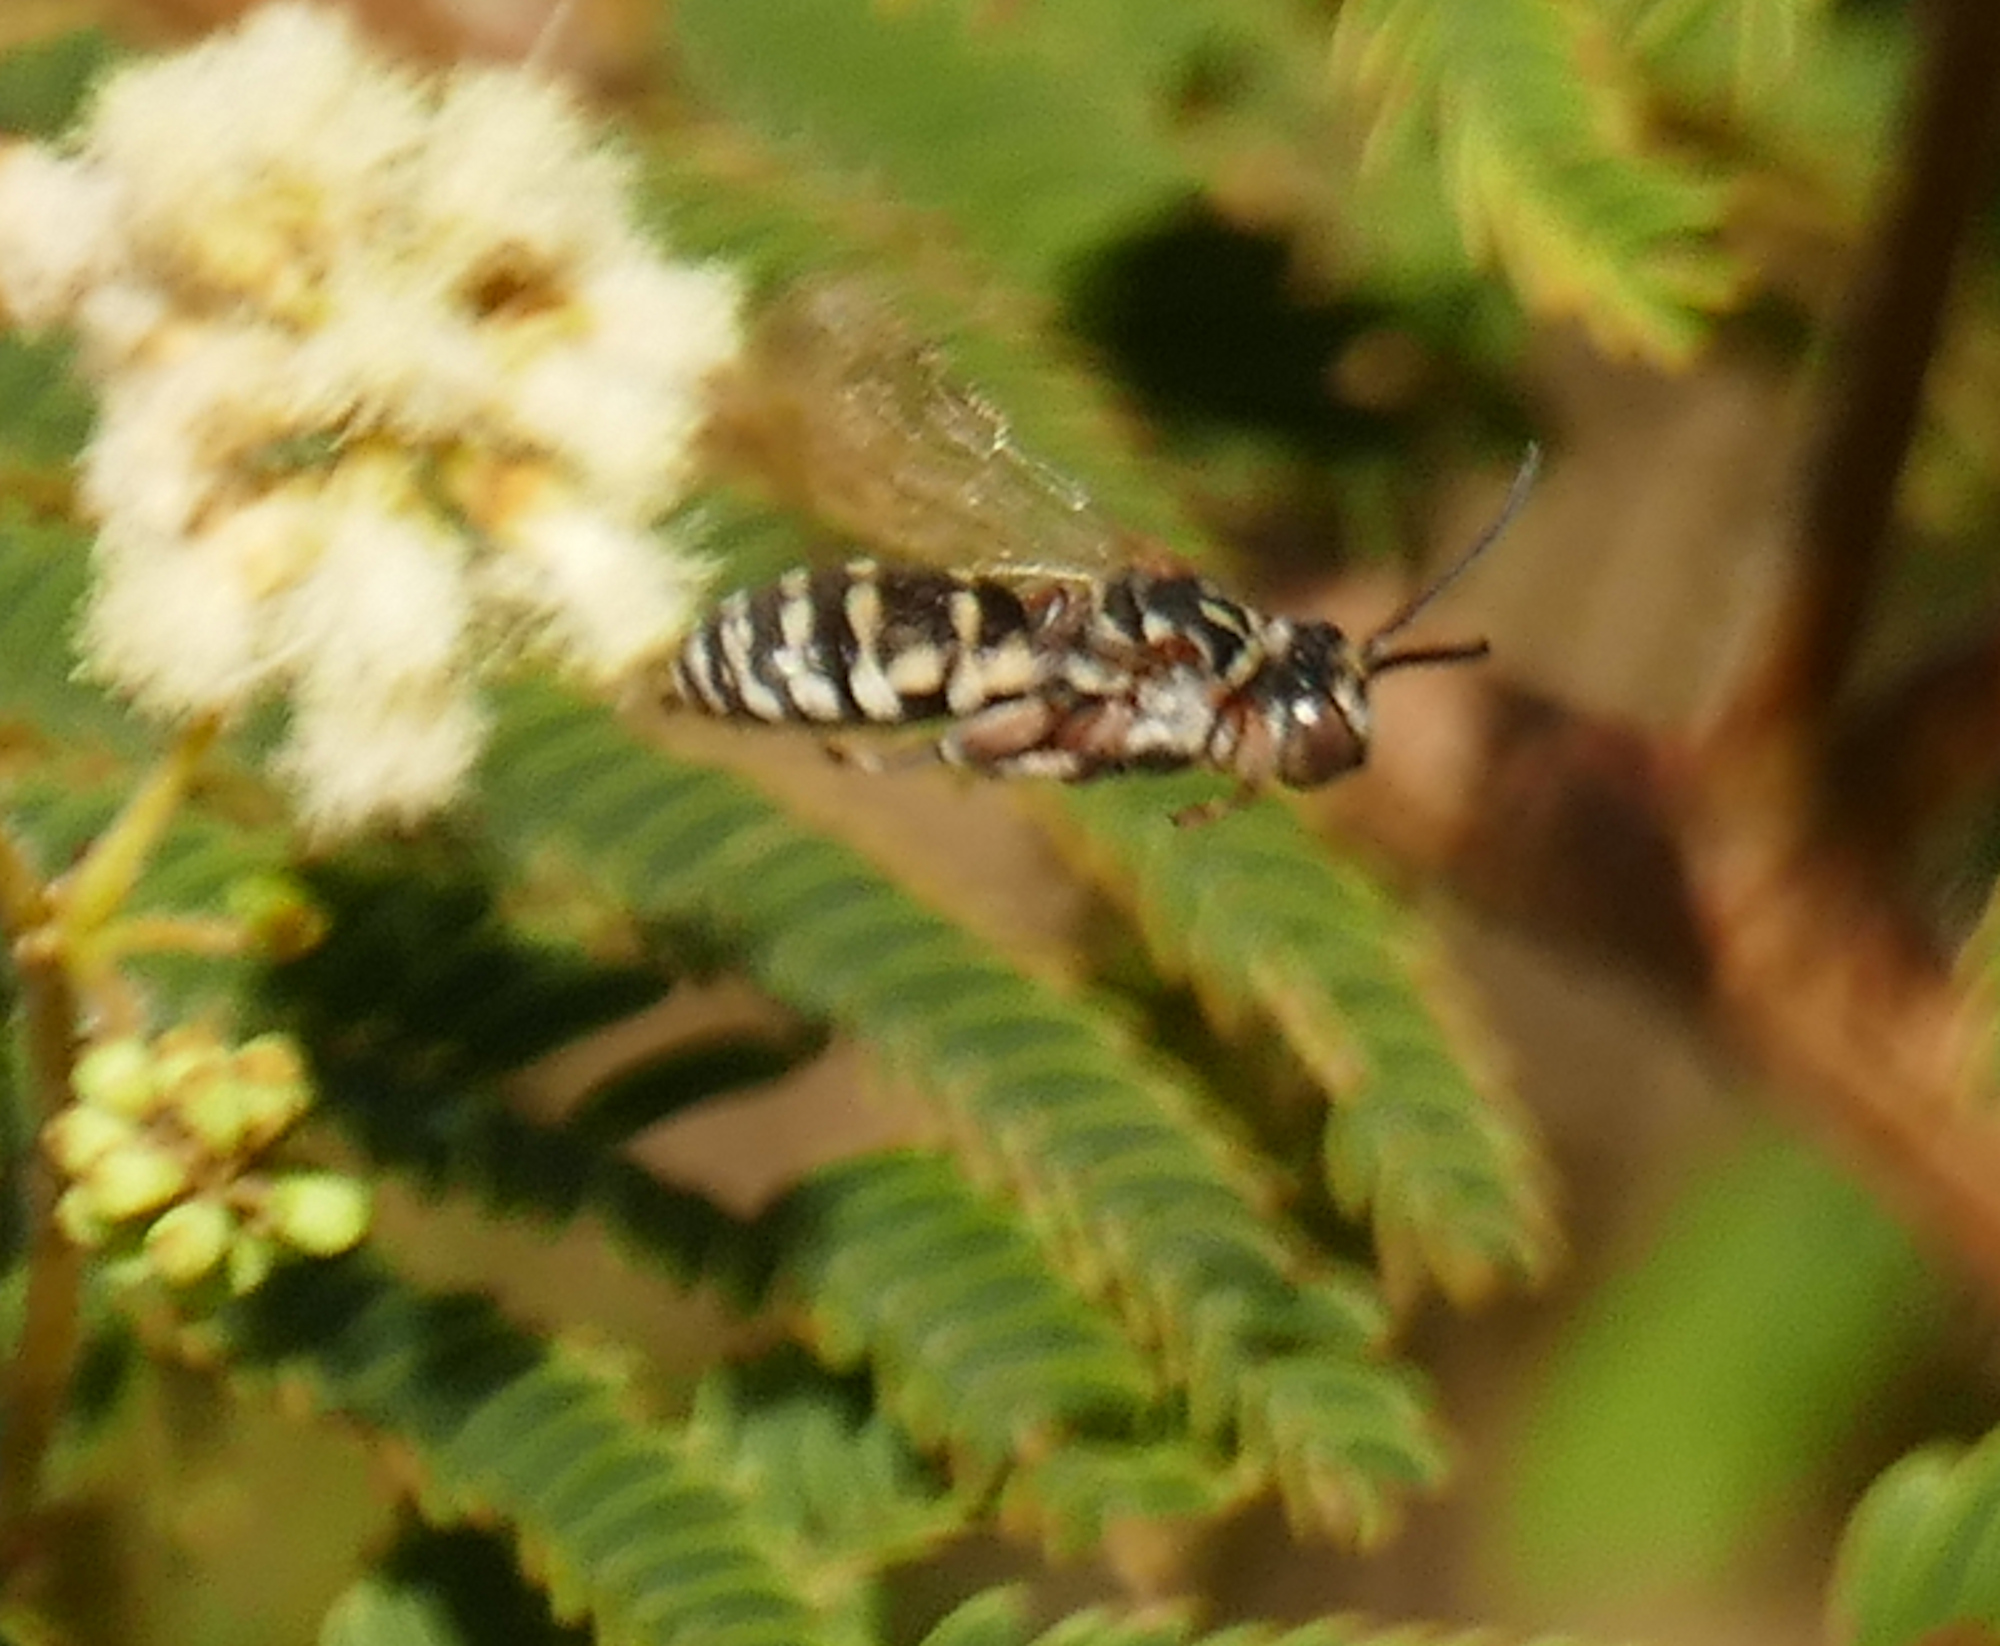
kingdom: Animalia
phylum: Arthropoda
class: Insecta
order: Hymenoptera
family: Apidae
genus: Triepeolus
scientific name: Triepeolus verbesinae
